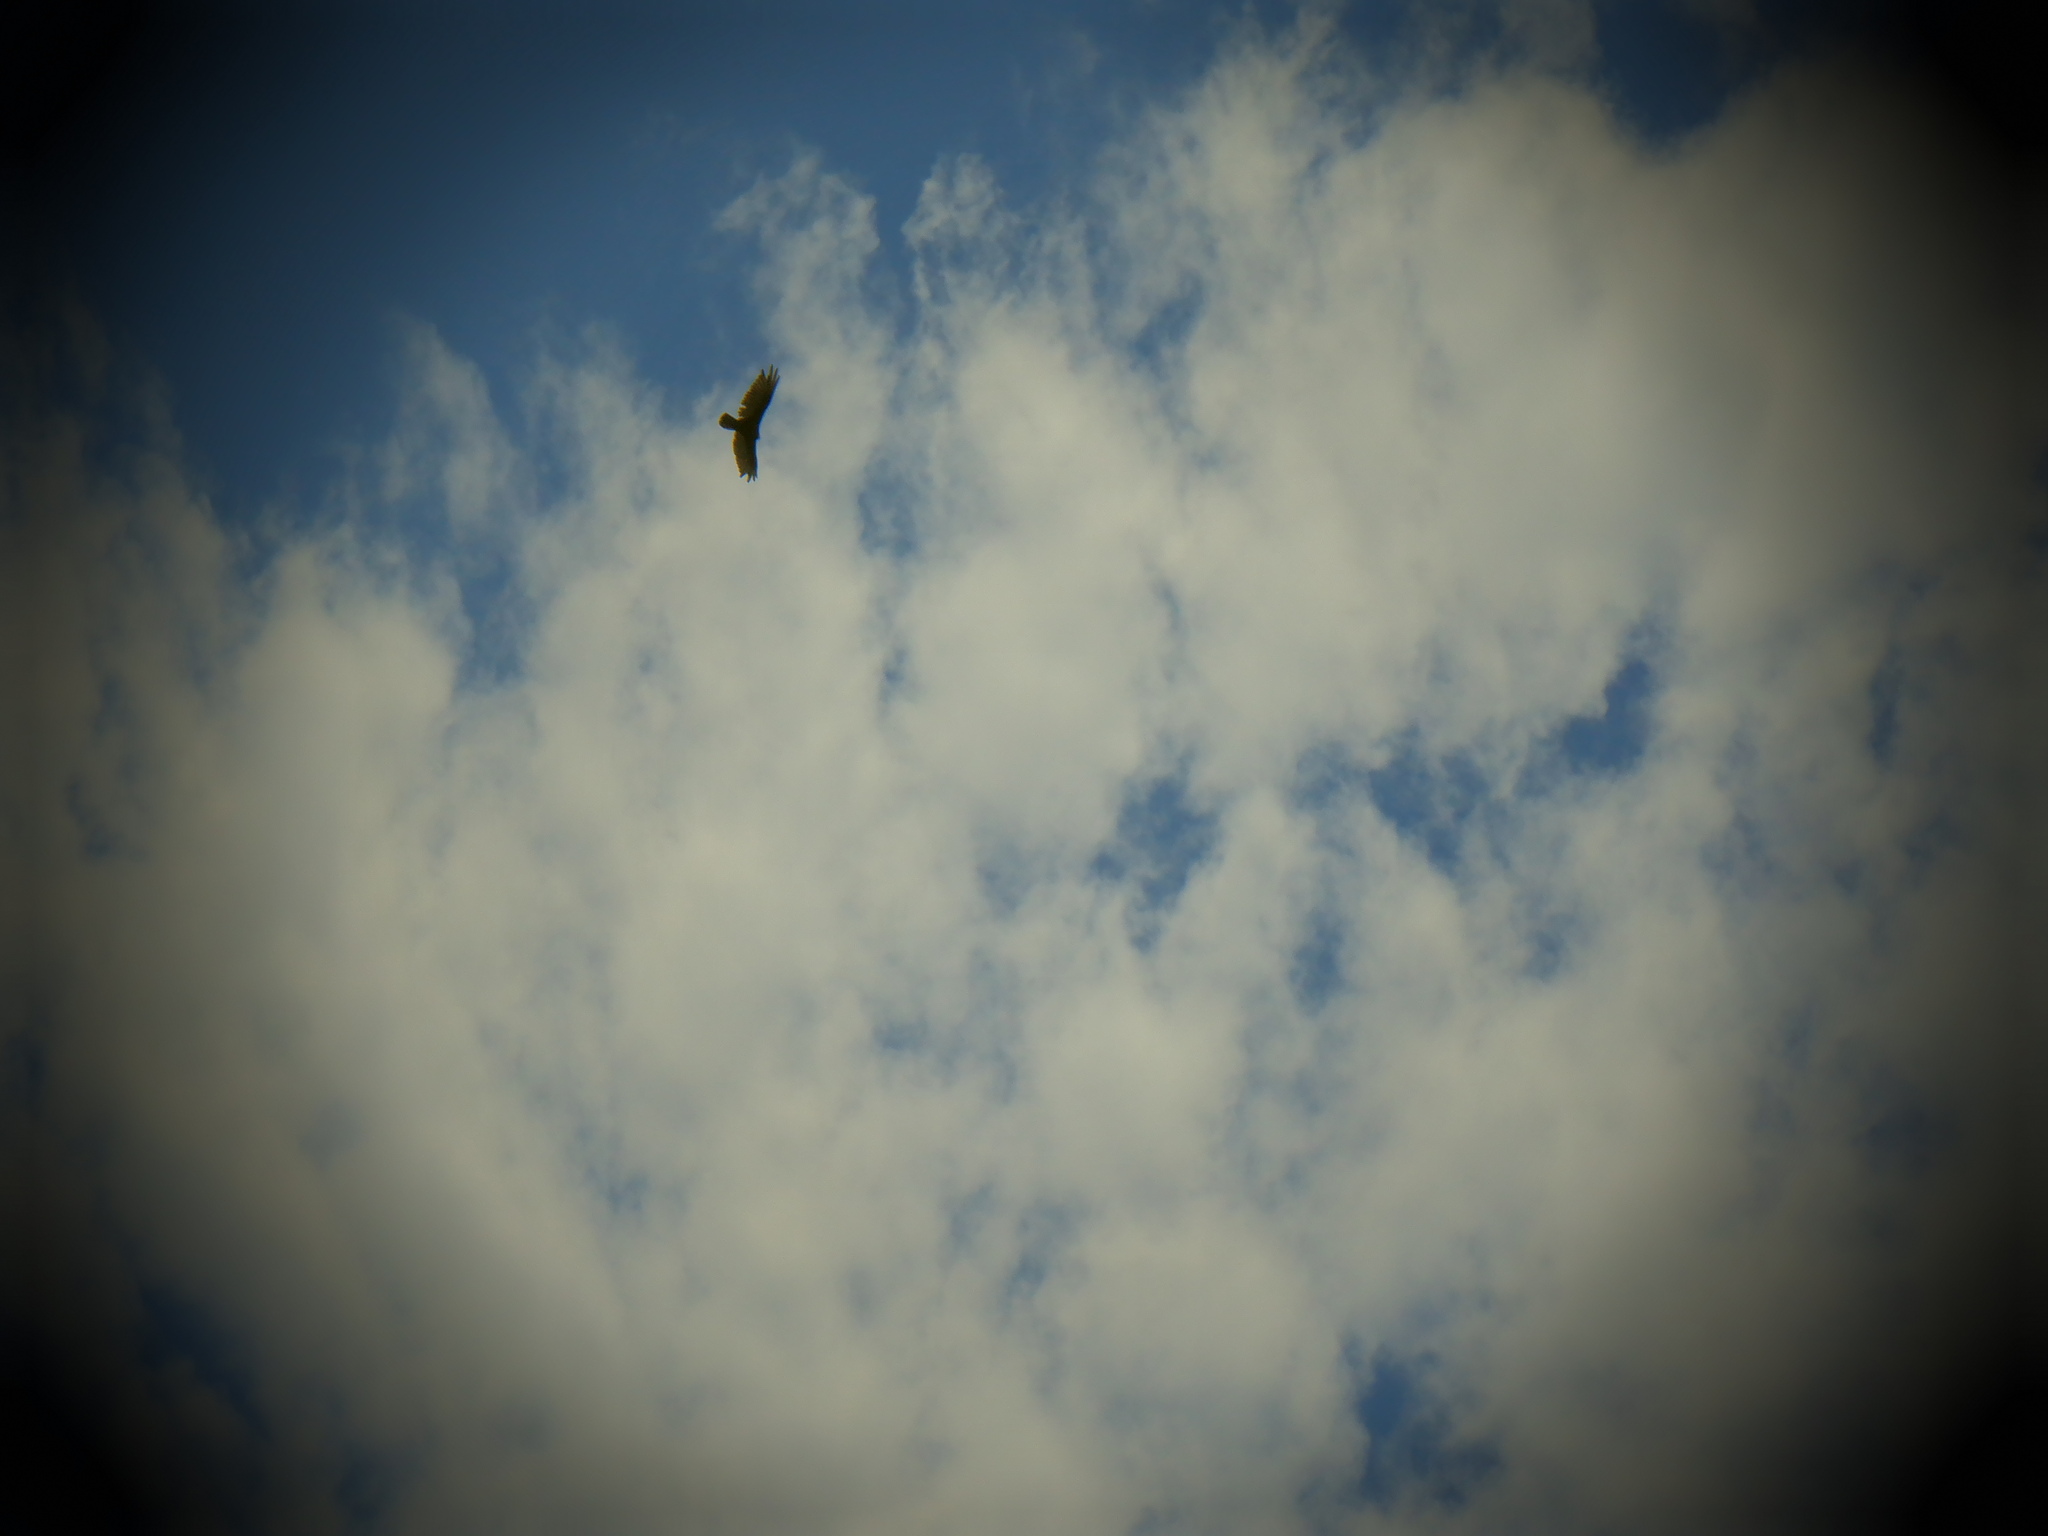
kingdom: Animalia
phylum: Chordata
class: Aves
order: Accipitriformes
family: Cathartidae
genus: Cathartes
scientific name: Cathartes aura
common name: Turkey vulture
